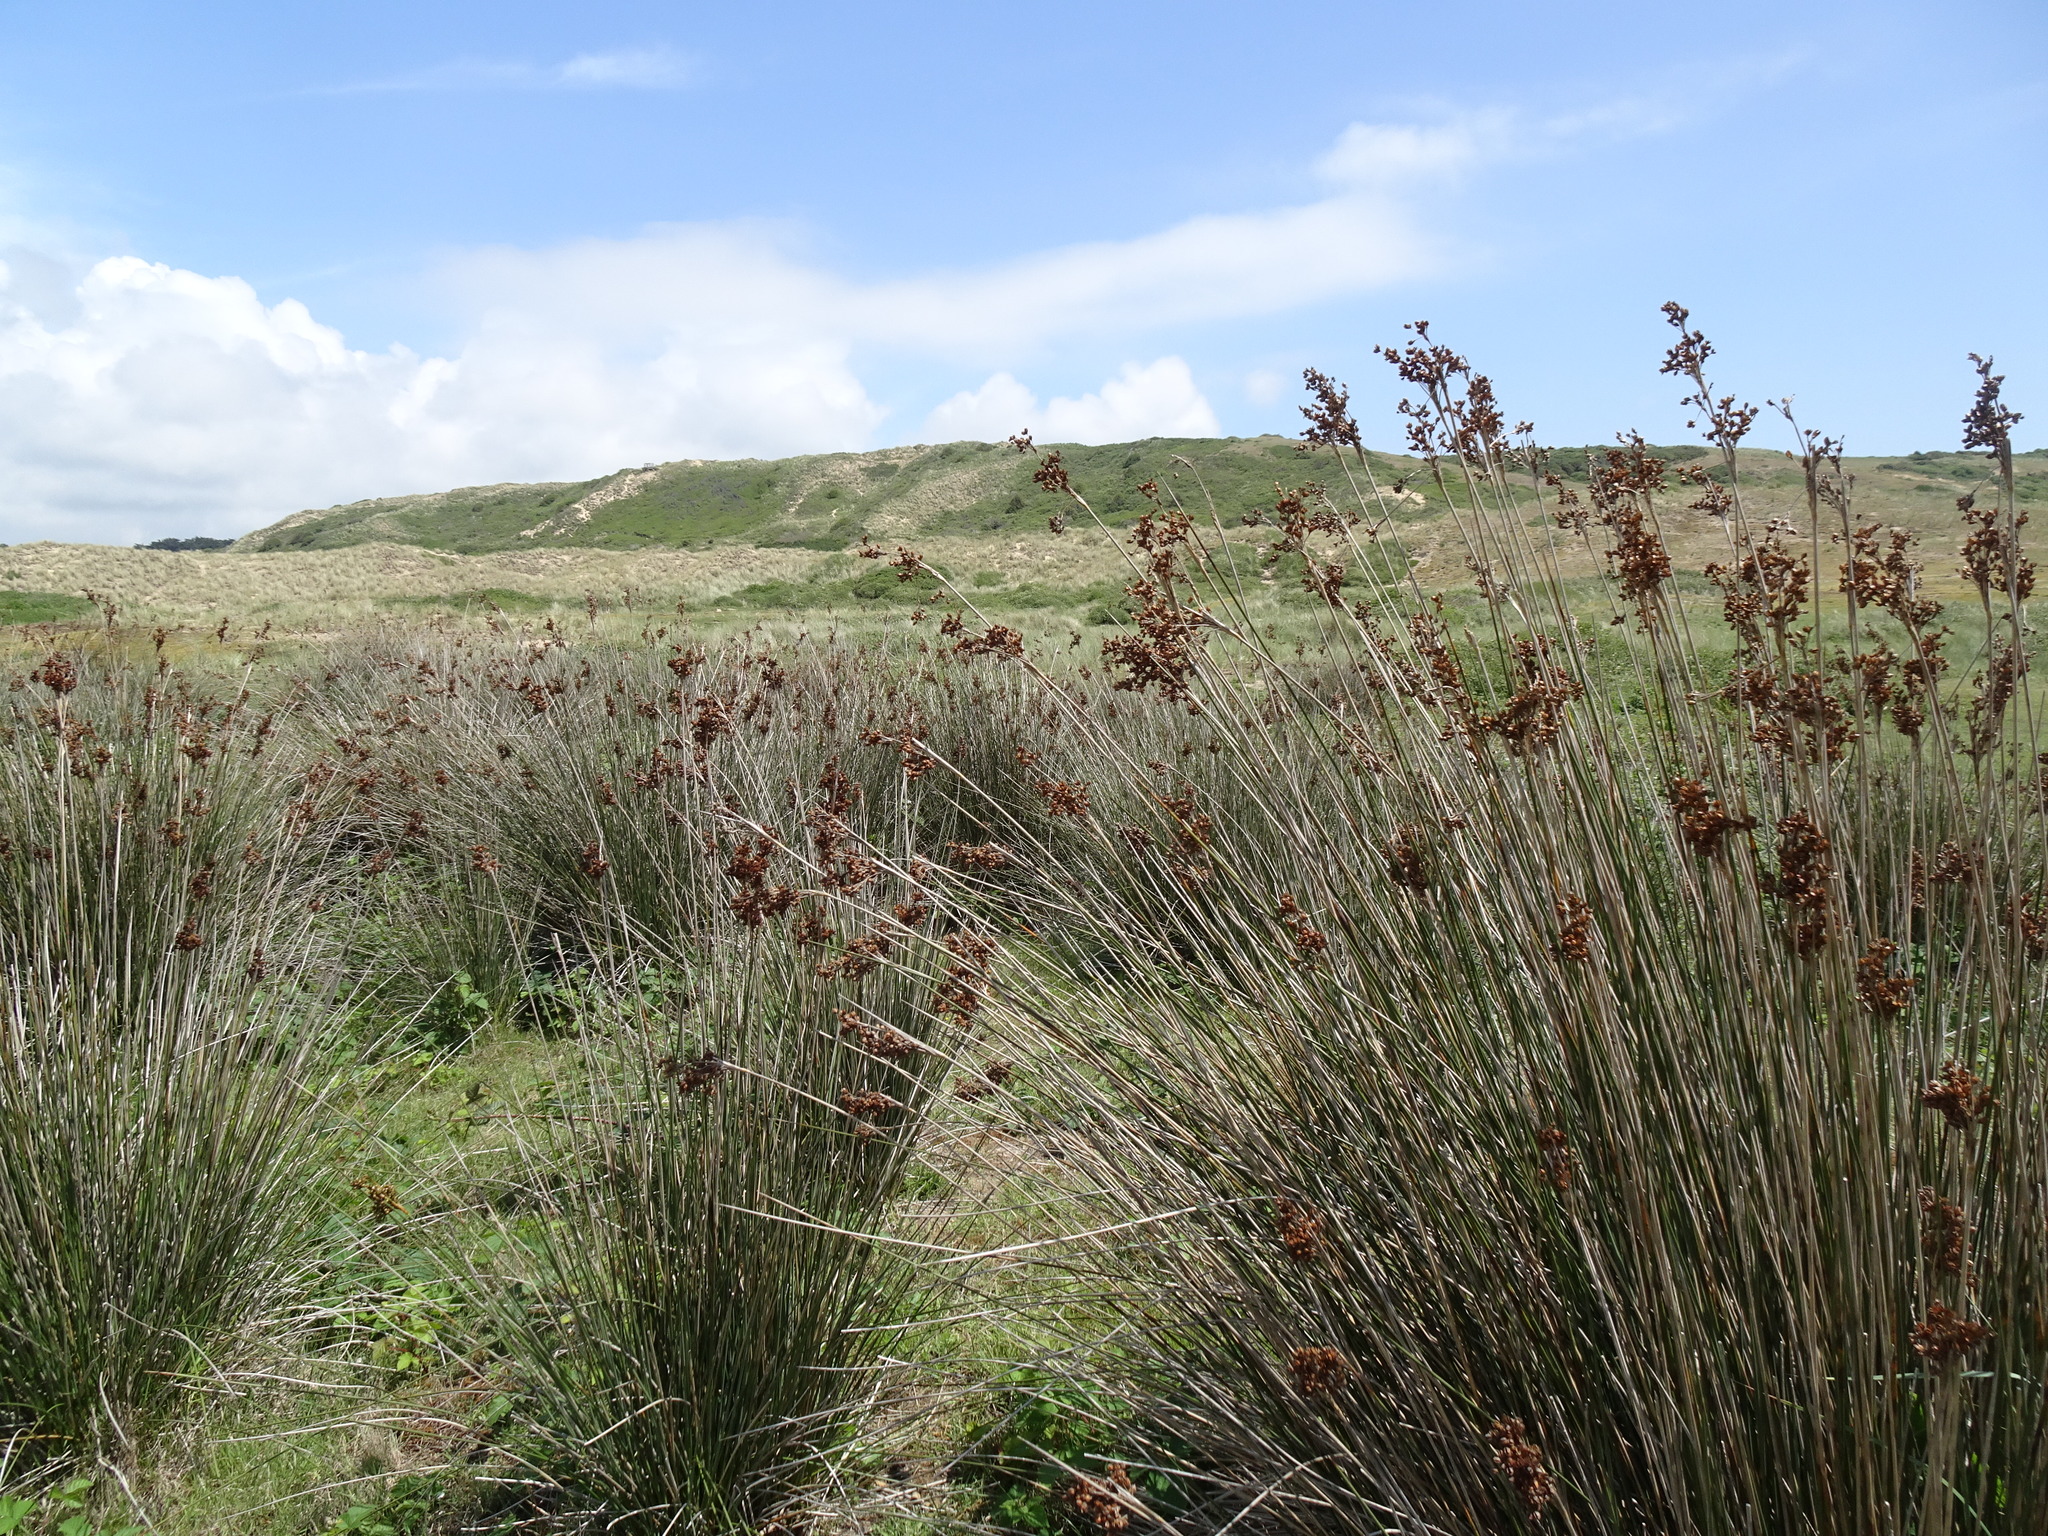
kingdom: Plantae
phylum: Tracheophyta
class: Liliopsida
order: Poales
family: Juncaceae
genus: Juncus
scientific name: Juncus acutus
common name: Sharp rush
